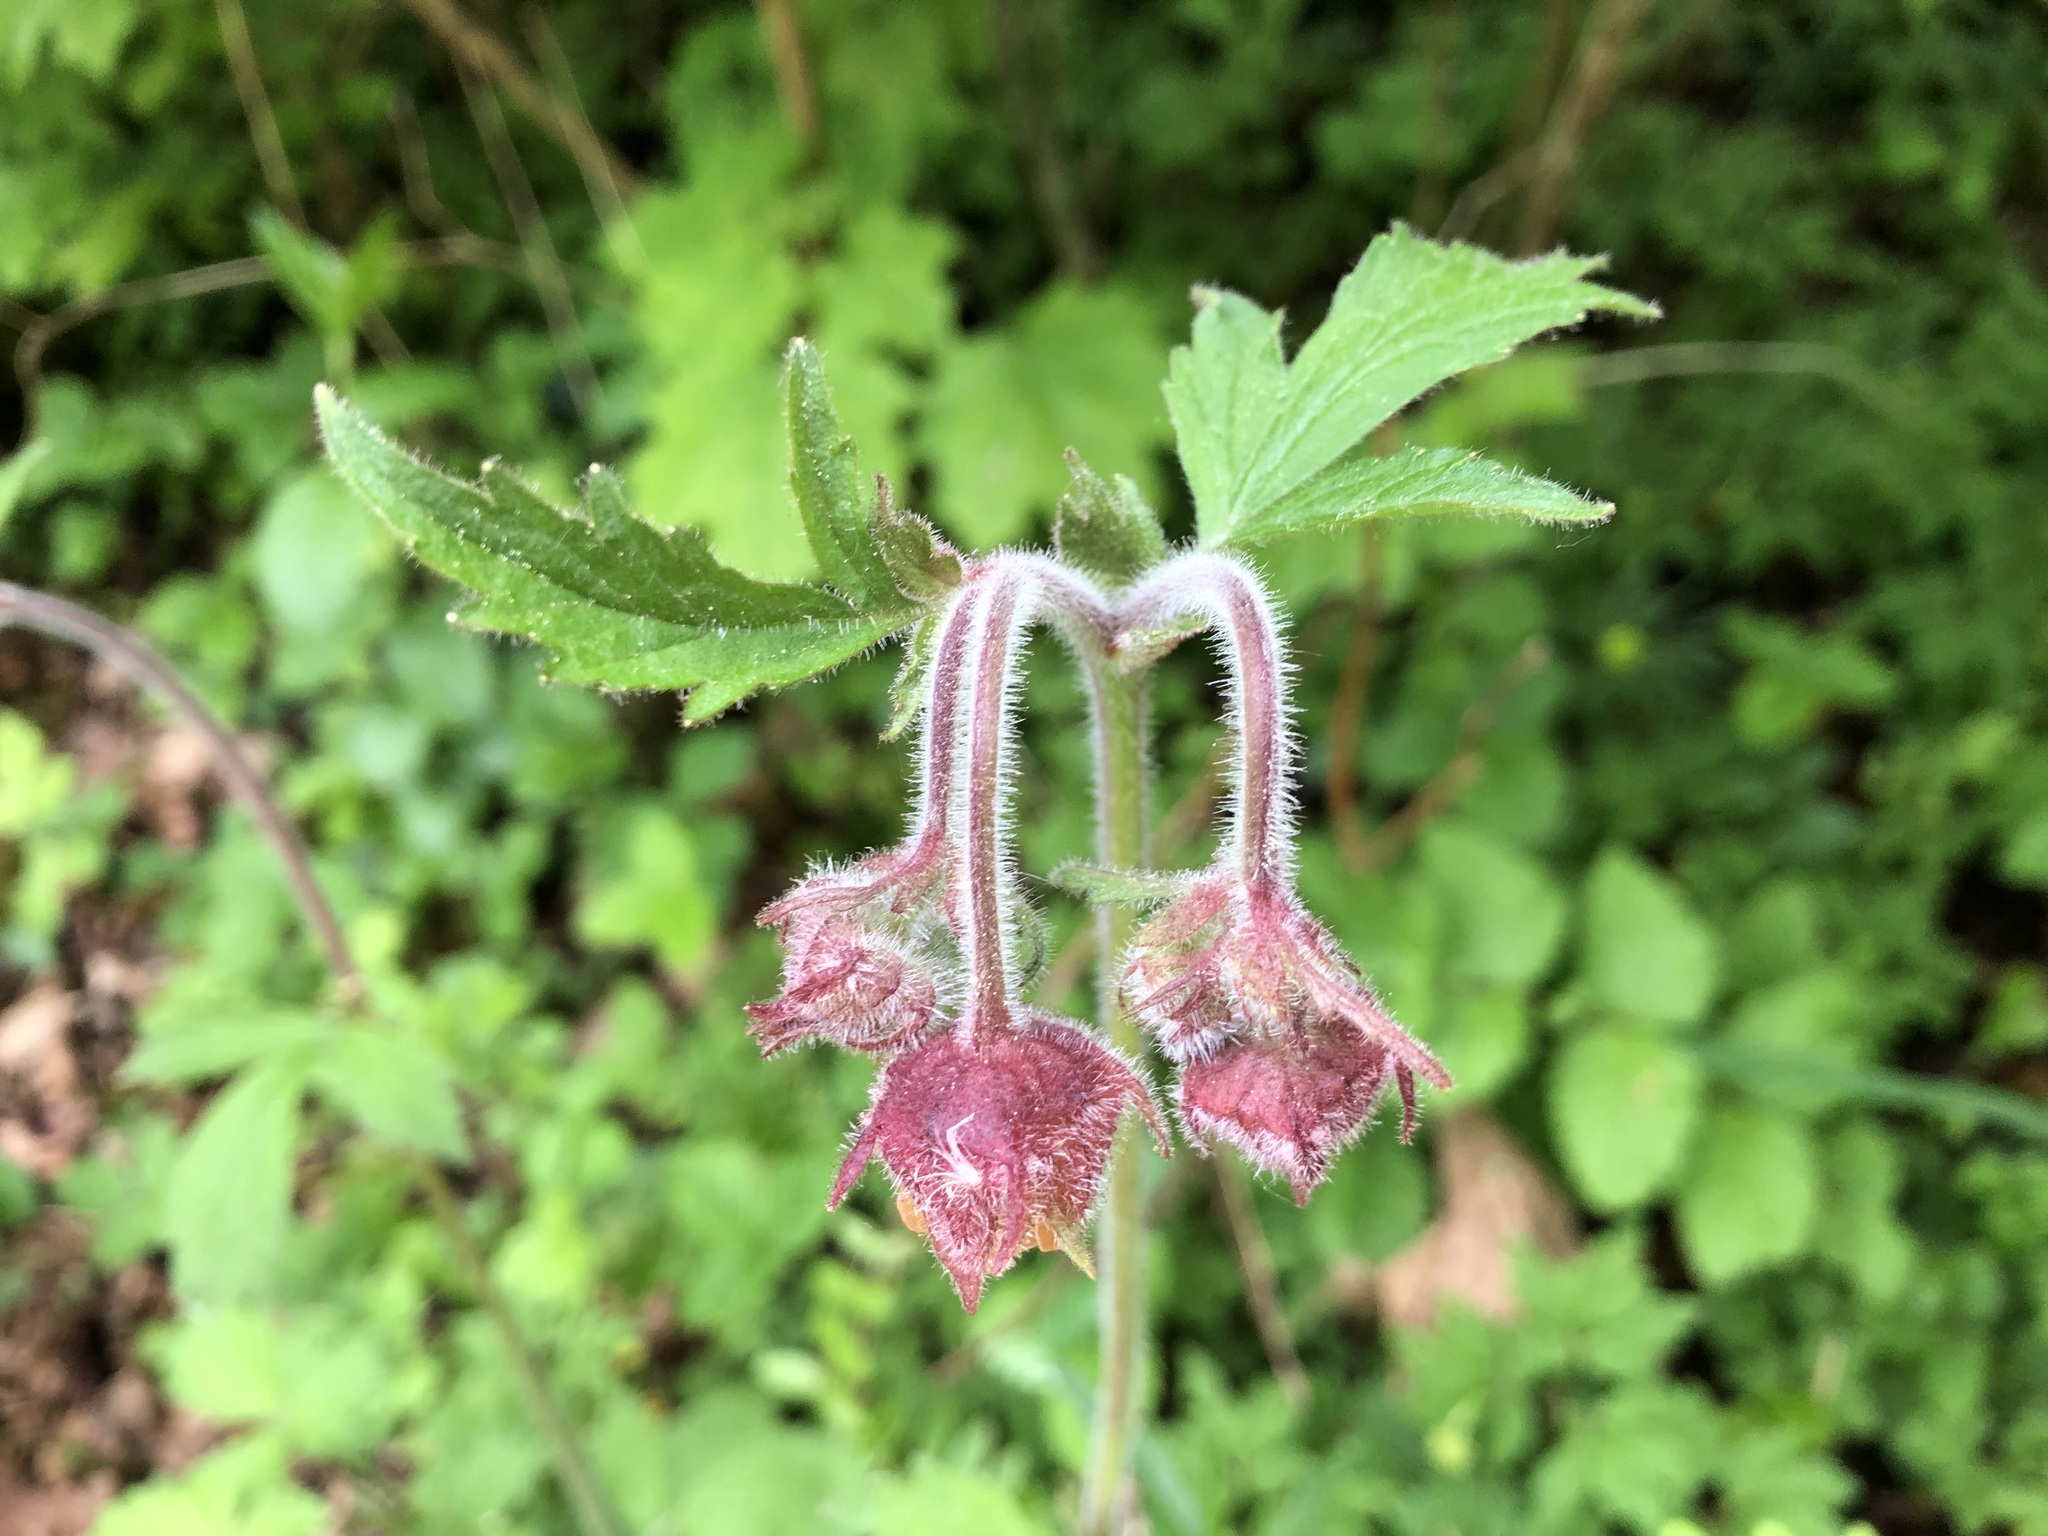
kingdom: Plantae
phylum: Tracheophyta
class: Magnoliopsida
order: Rosales
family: Rosaceae
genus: Geum
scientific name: Geum rivale
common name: Water avens
